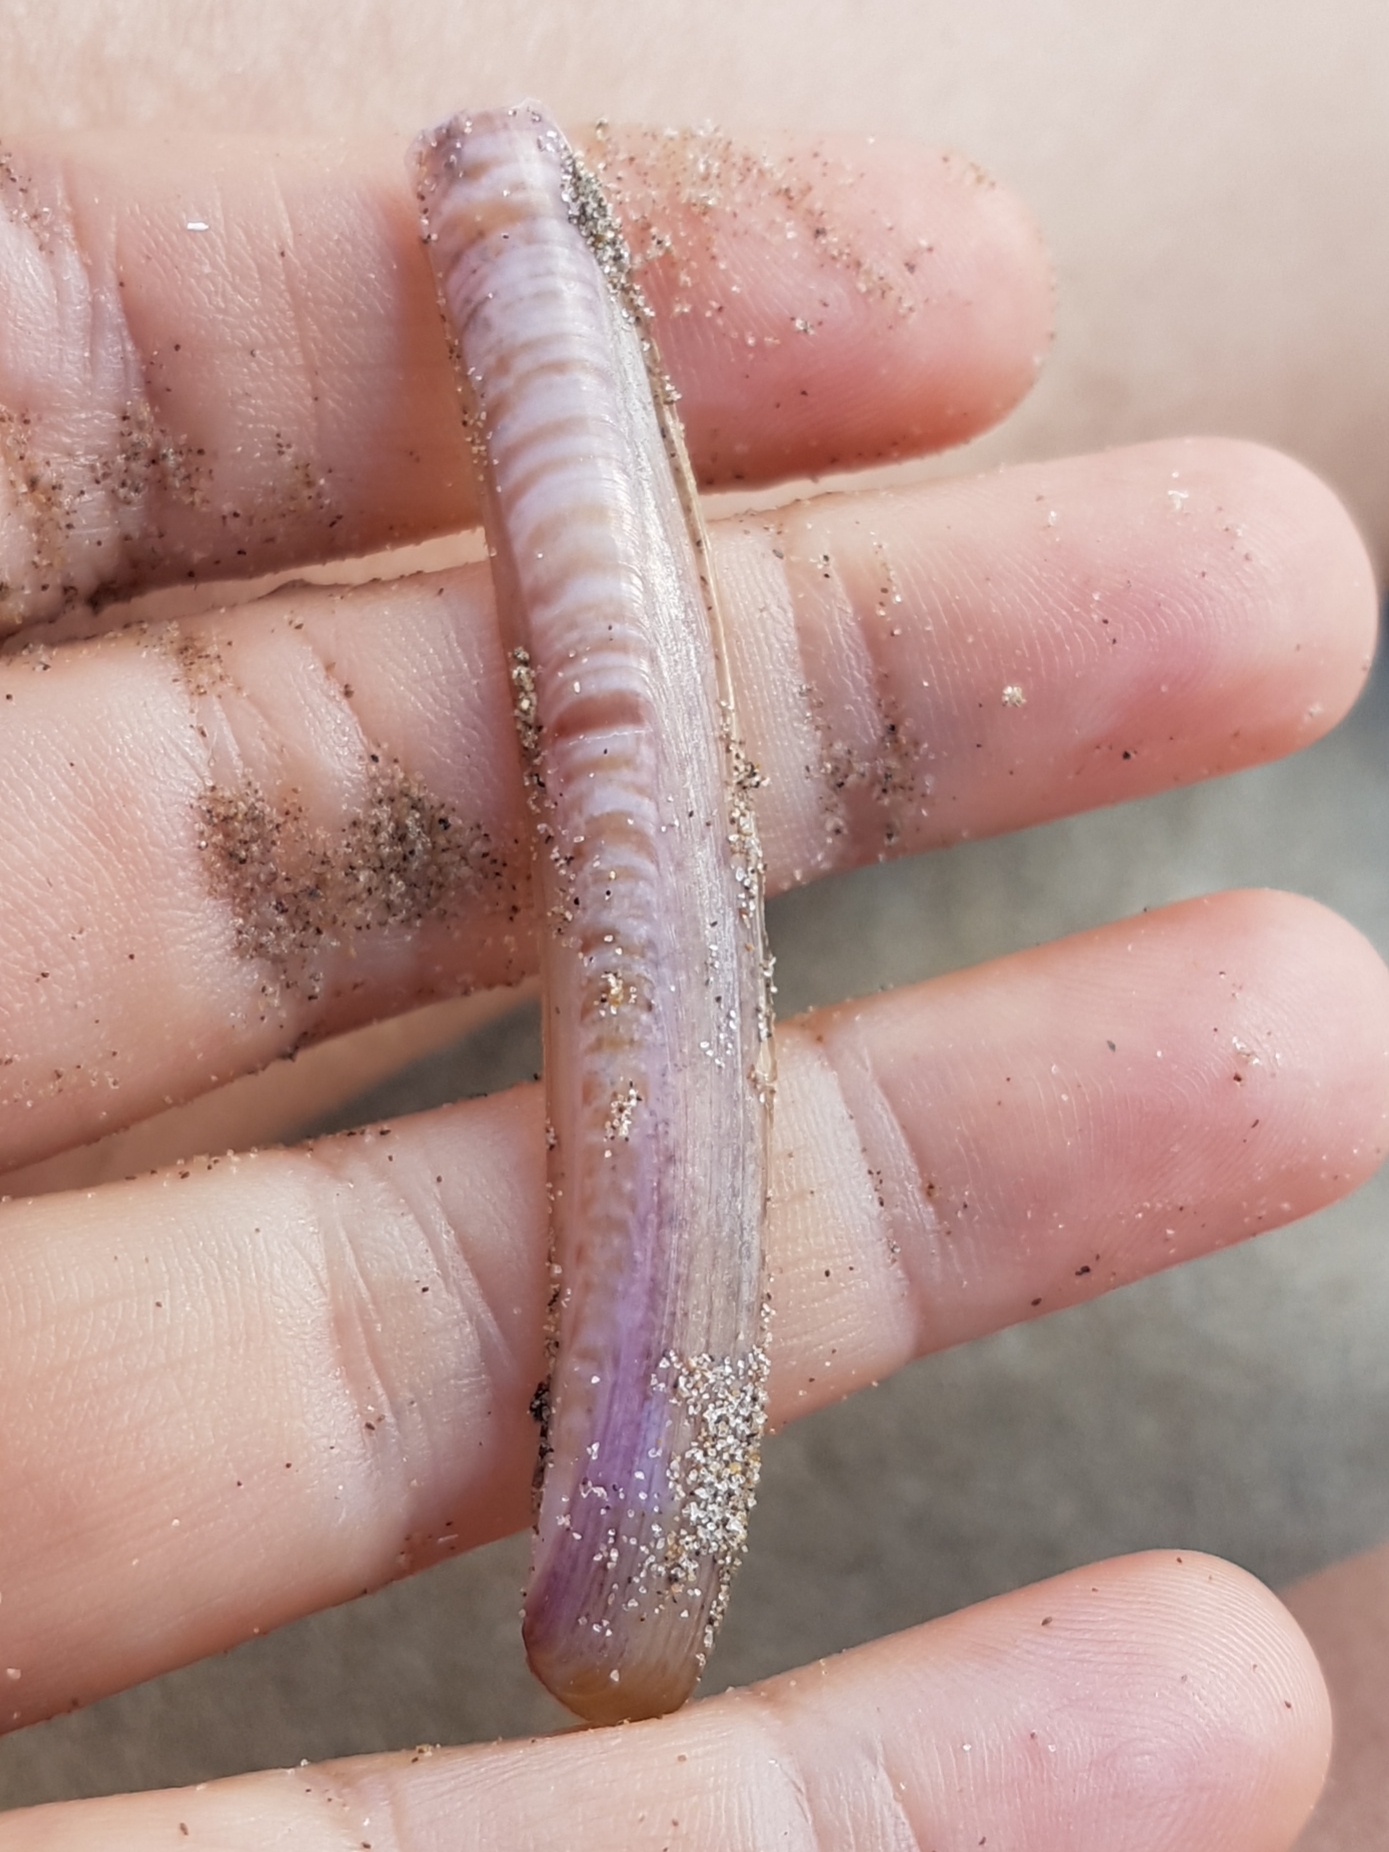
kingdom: Animalia
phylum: Mollusca
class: Bivalvia
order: Adapedonta
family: Pharidae
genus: Ensis
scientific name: Ensis ensis
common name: Common razor shell
